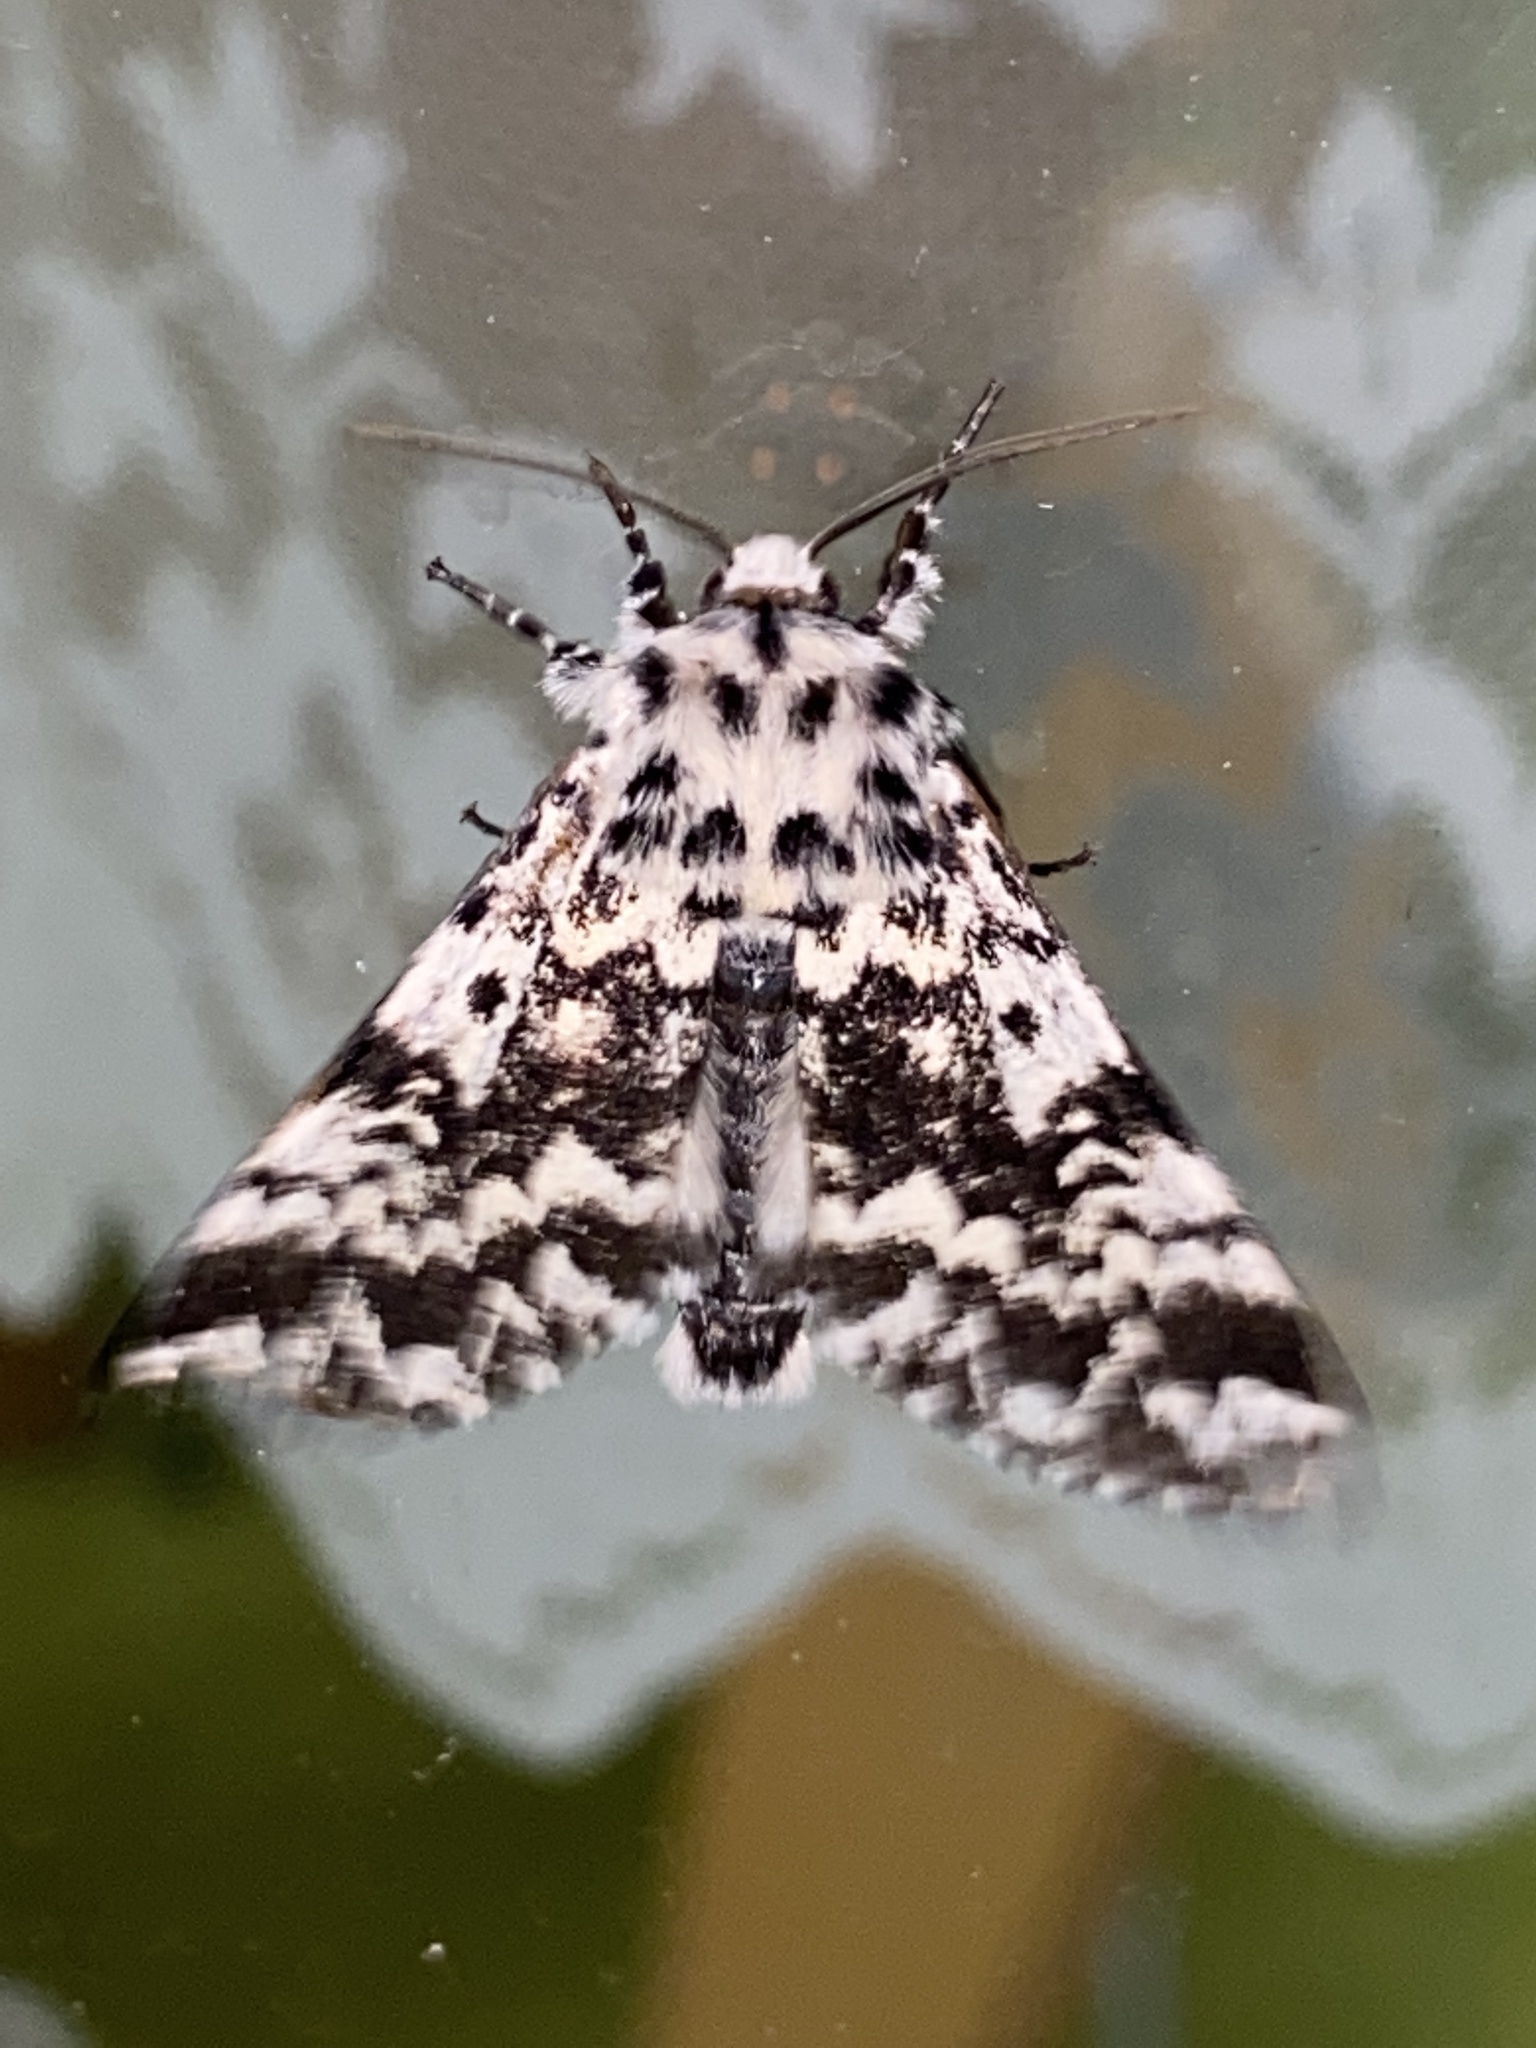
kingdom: Animalia
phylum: Arthropoda
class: Insecta
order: Lepidoptera
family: Noctuidae
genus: Panthea
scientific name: Panthea coenobita
